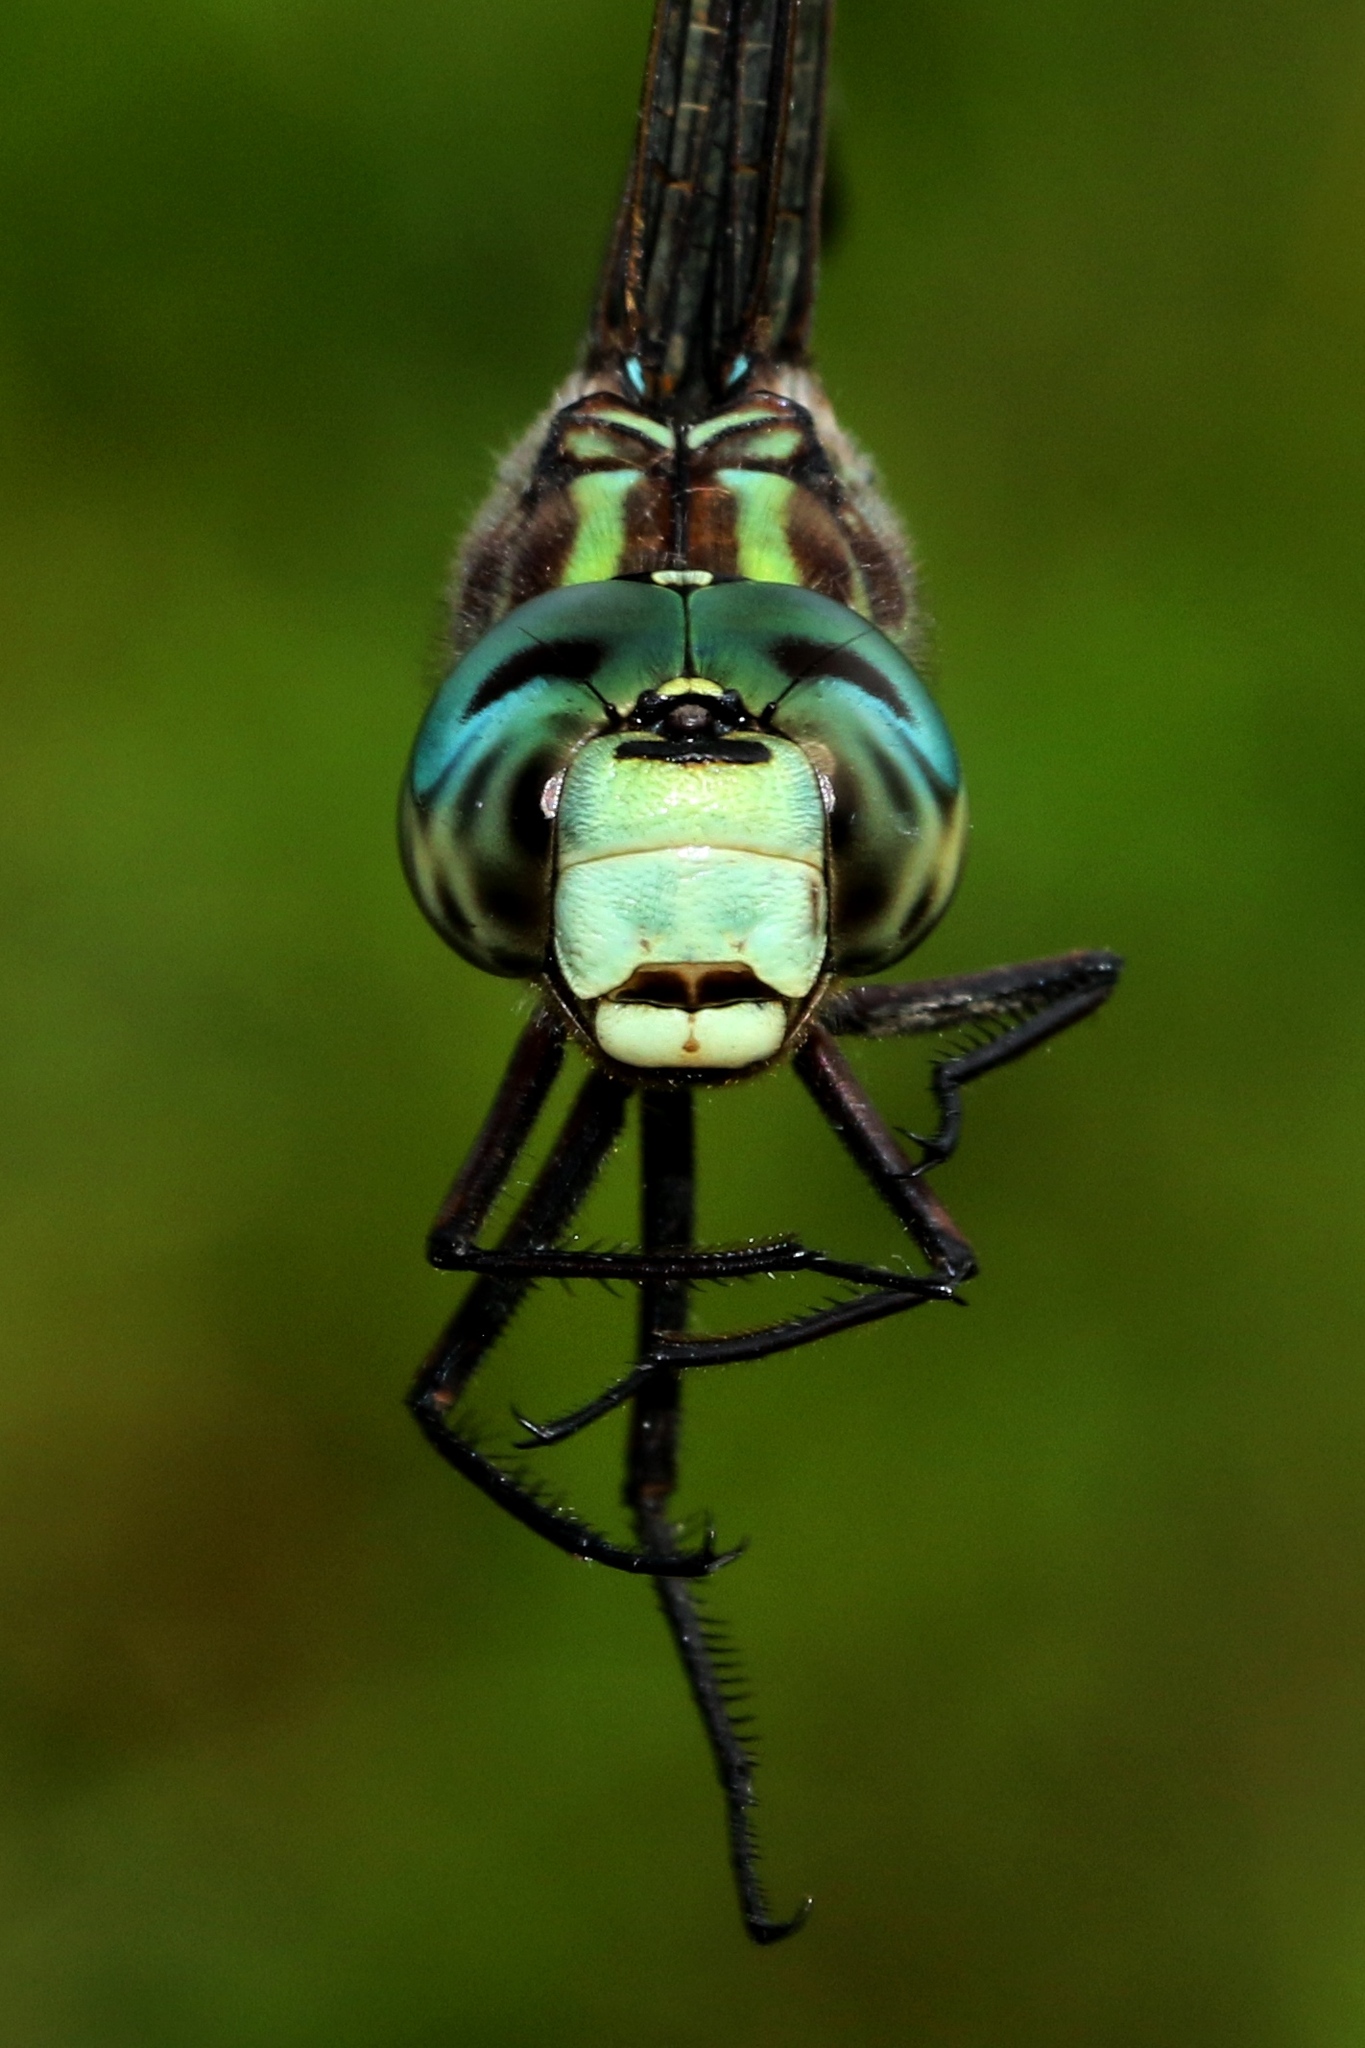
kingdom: Animalia
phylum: Arthropoda
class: Insecta
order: Odonata
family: Aeshnidae
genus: Aeshna
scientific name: Aeshna canadensis
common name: Canada darner
